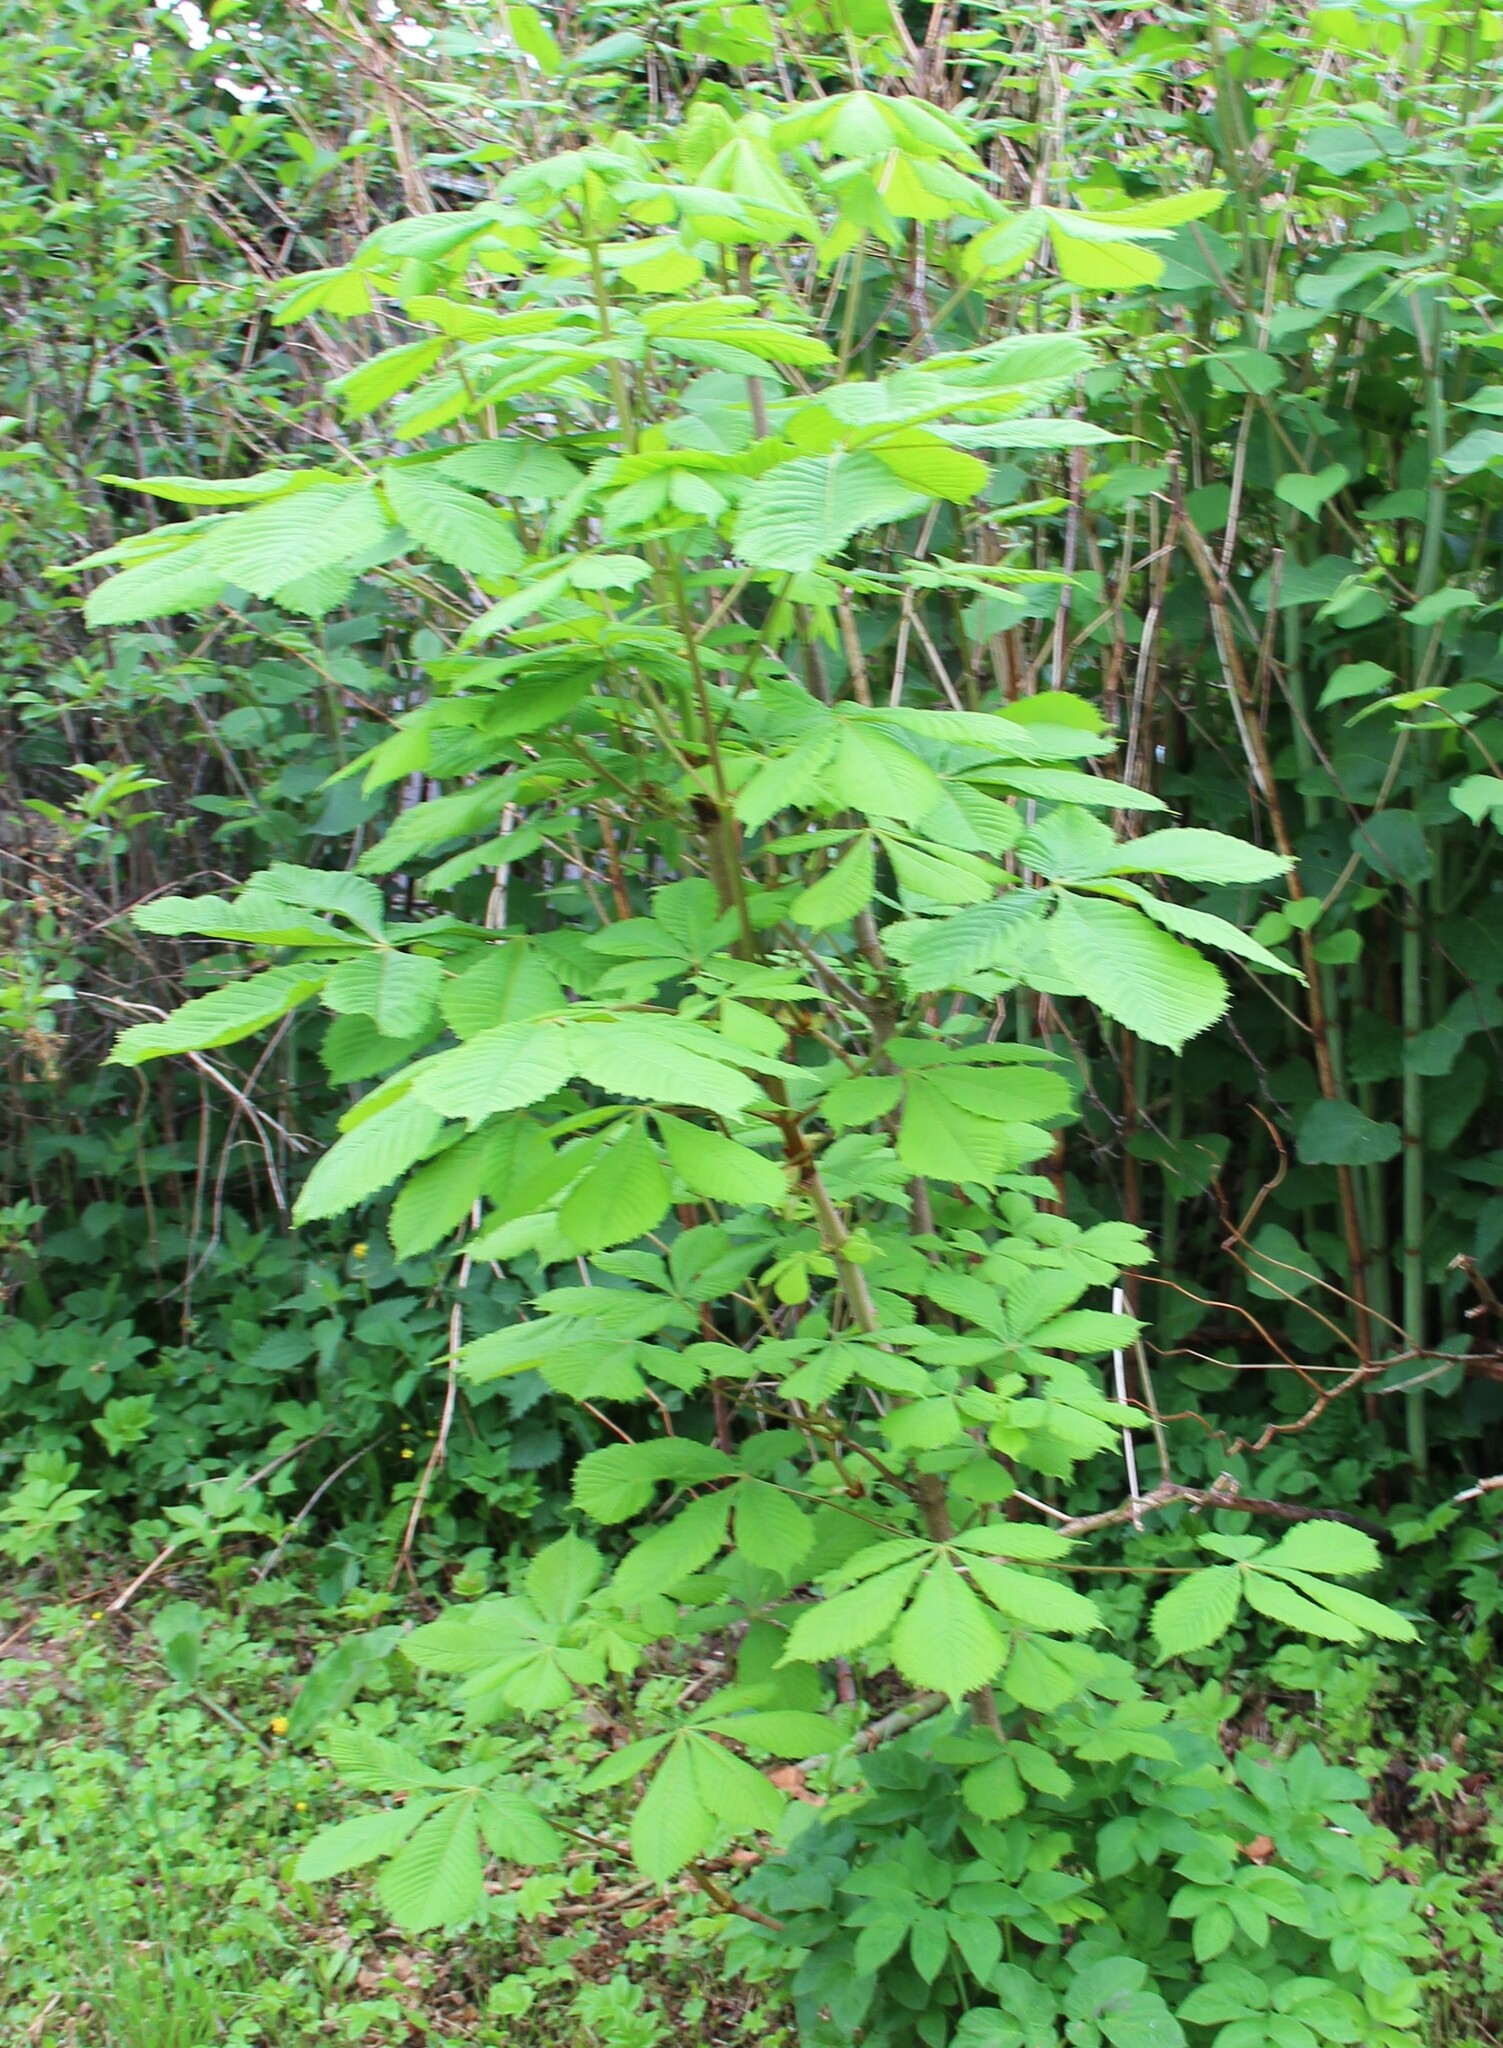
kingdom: Plantae
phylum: Tracheophyta
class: Magnoliopsida
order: Sapindales
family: Sapindaceae
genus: Aesculus
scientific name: Aesculus hippocastanum
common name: Horse-chestnut
